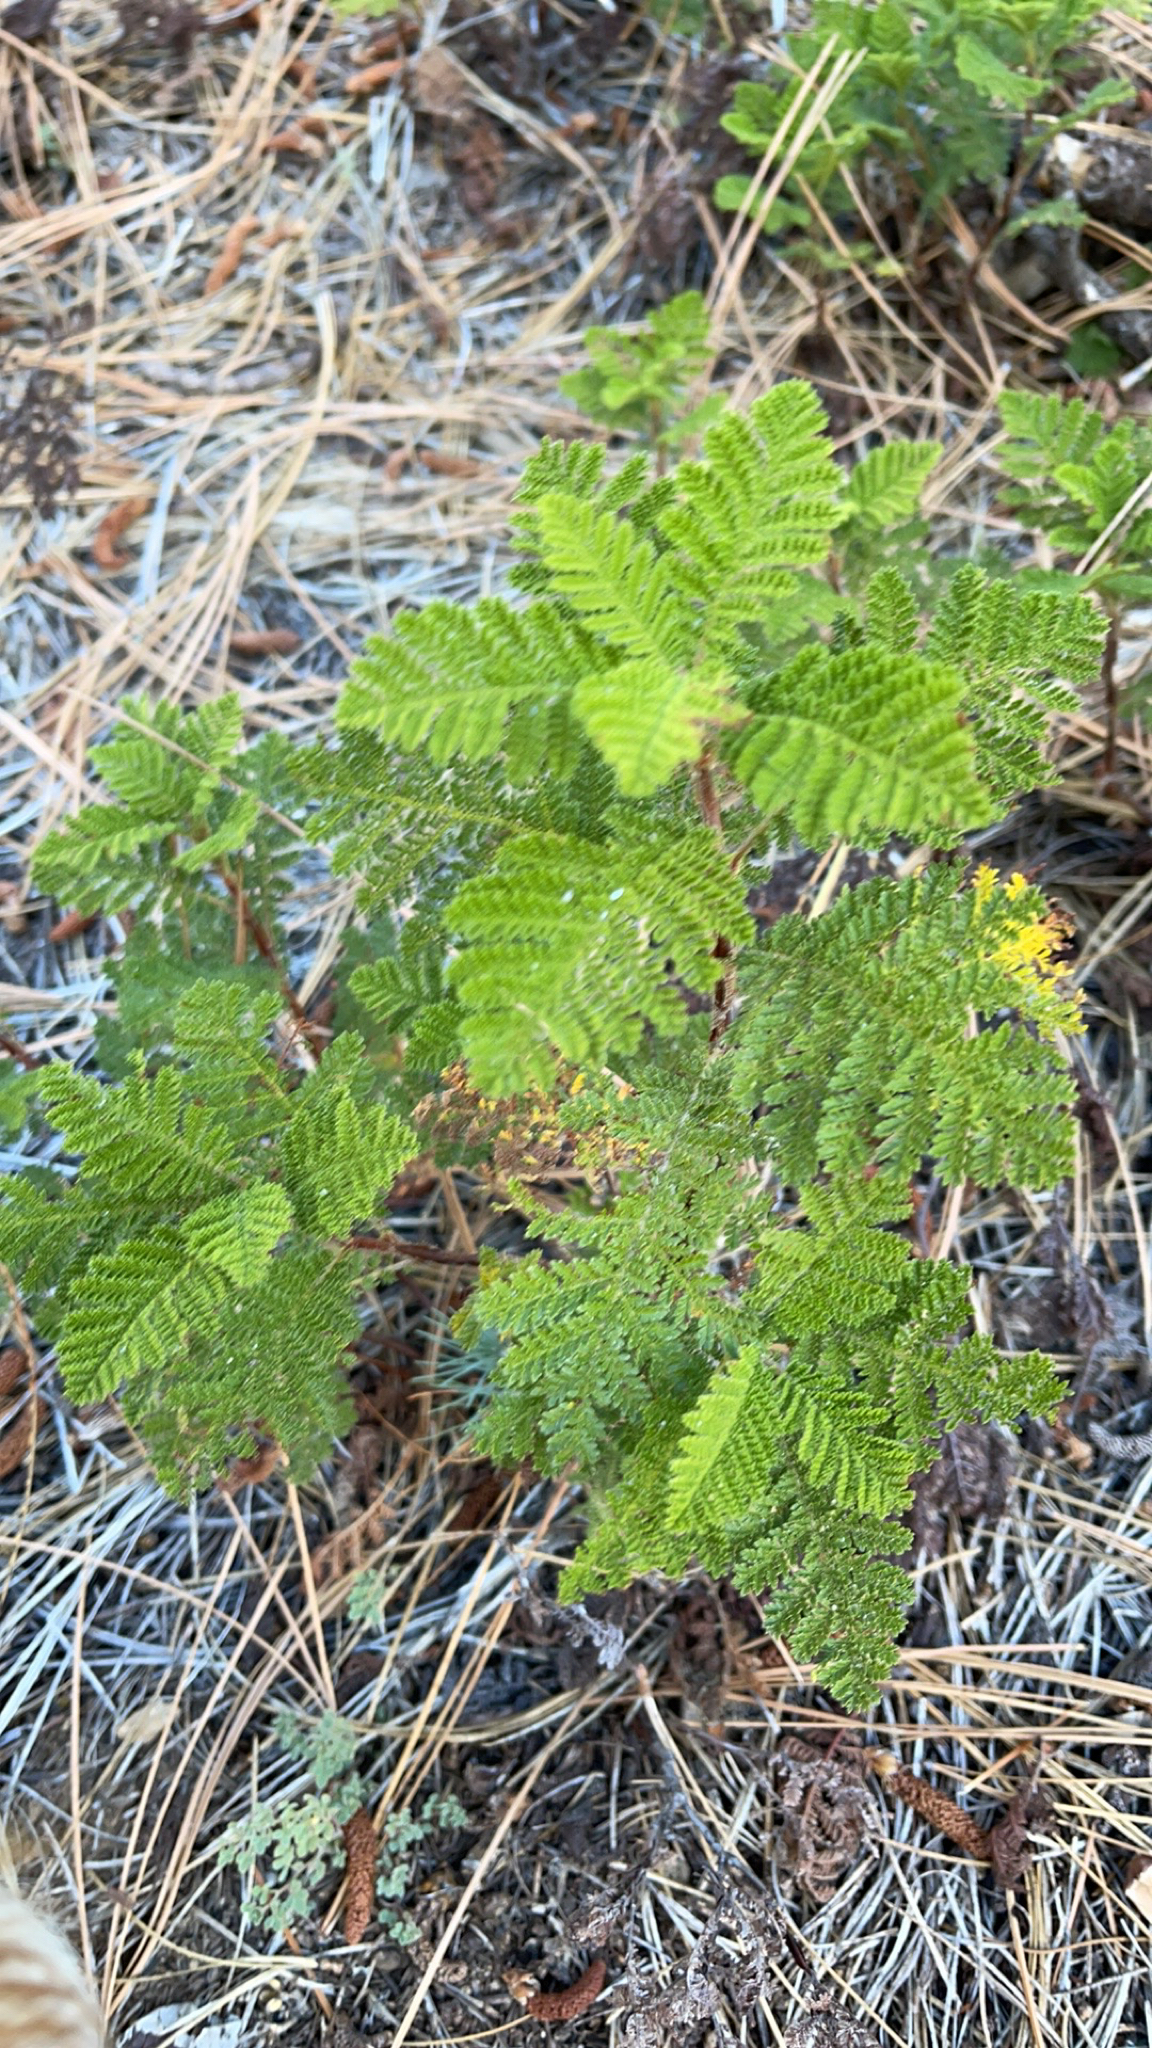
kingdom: Plantae
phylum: Tracheophyta
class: Magnoliopsida
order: Rosales
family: Rosaceae
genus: Chamaebatia
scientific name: Chamaebatia foliolosa
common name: Mountain misery
